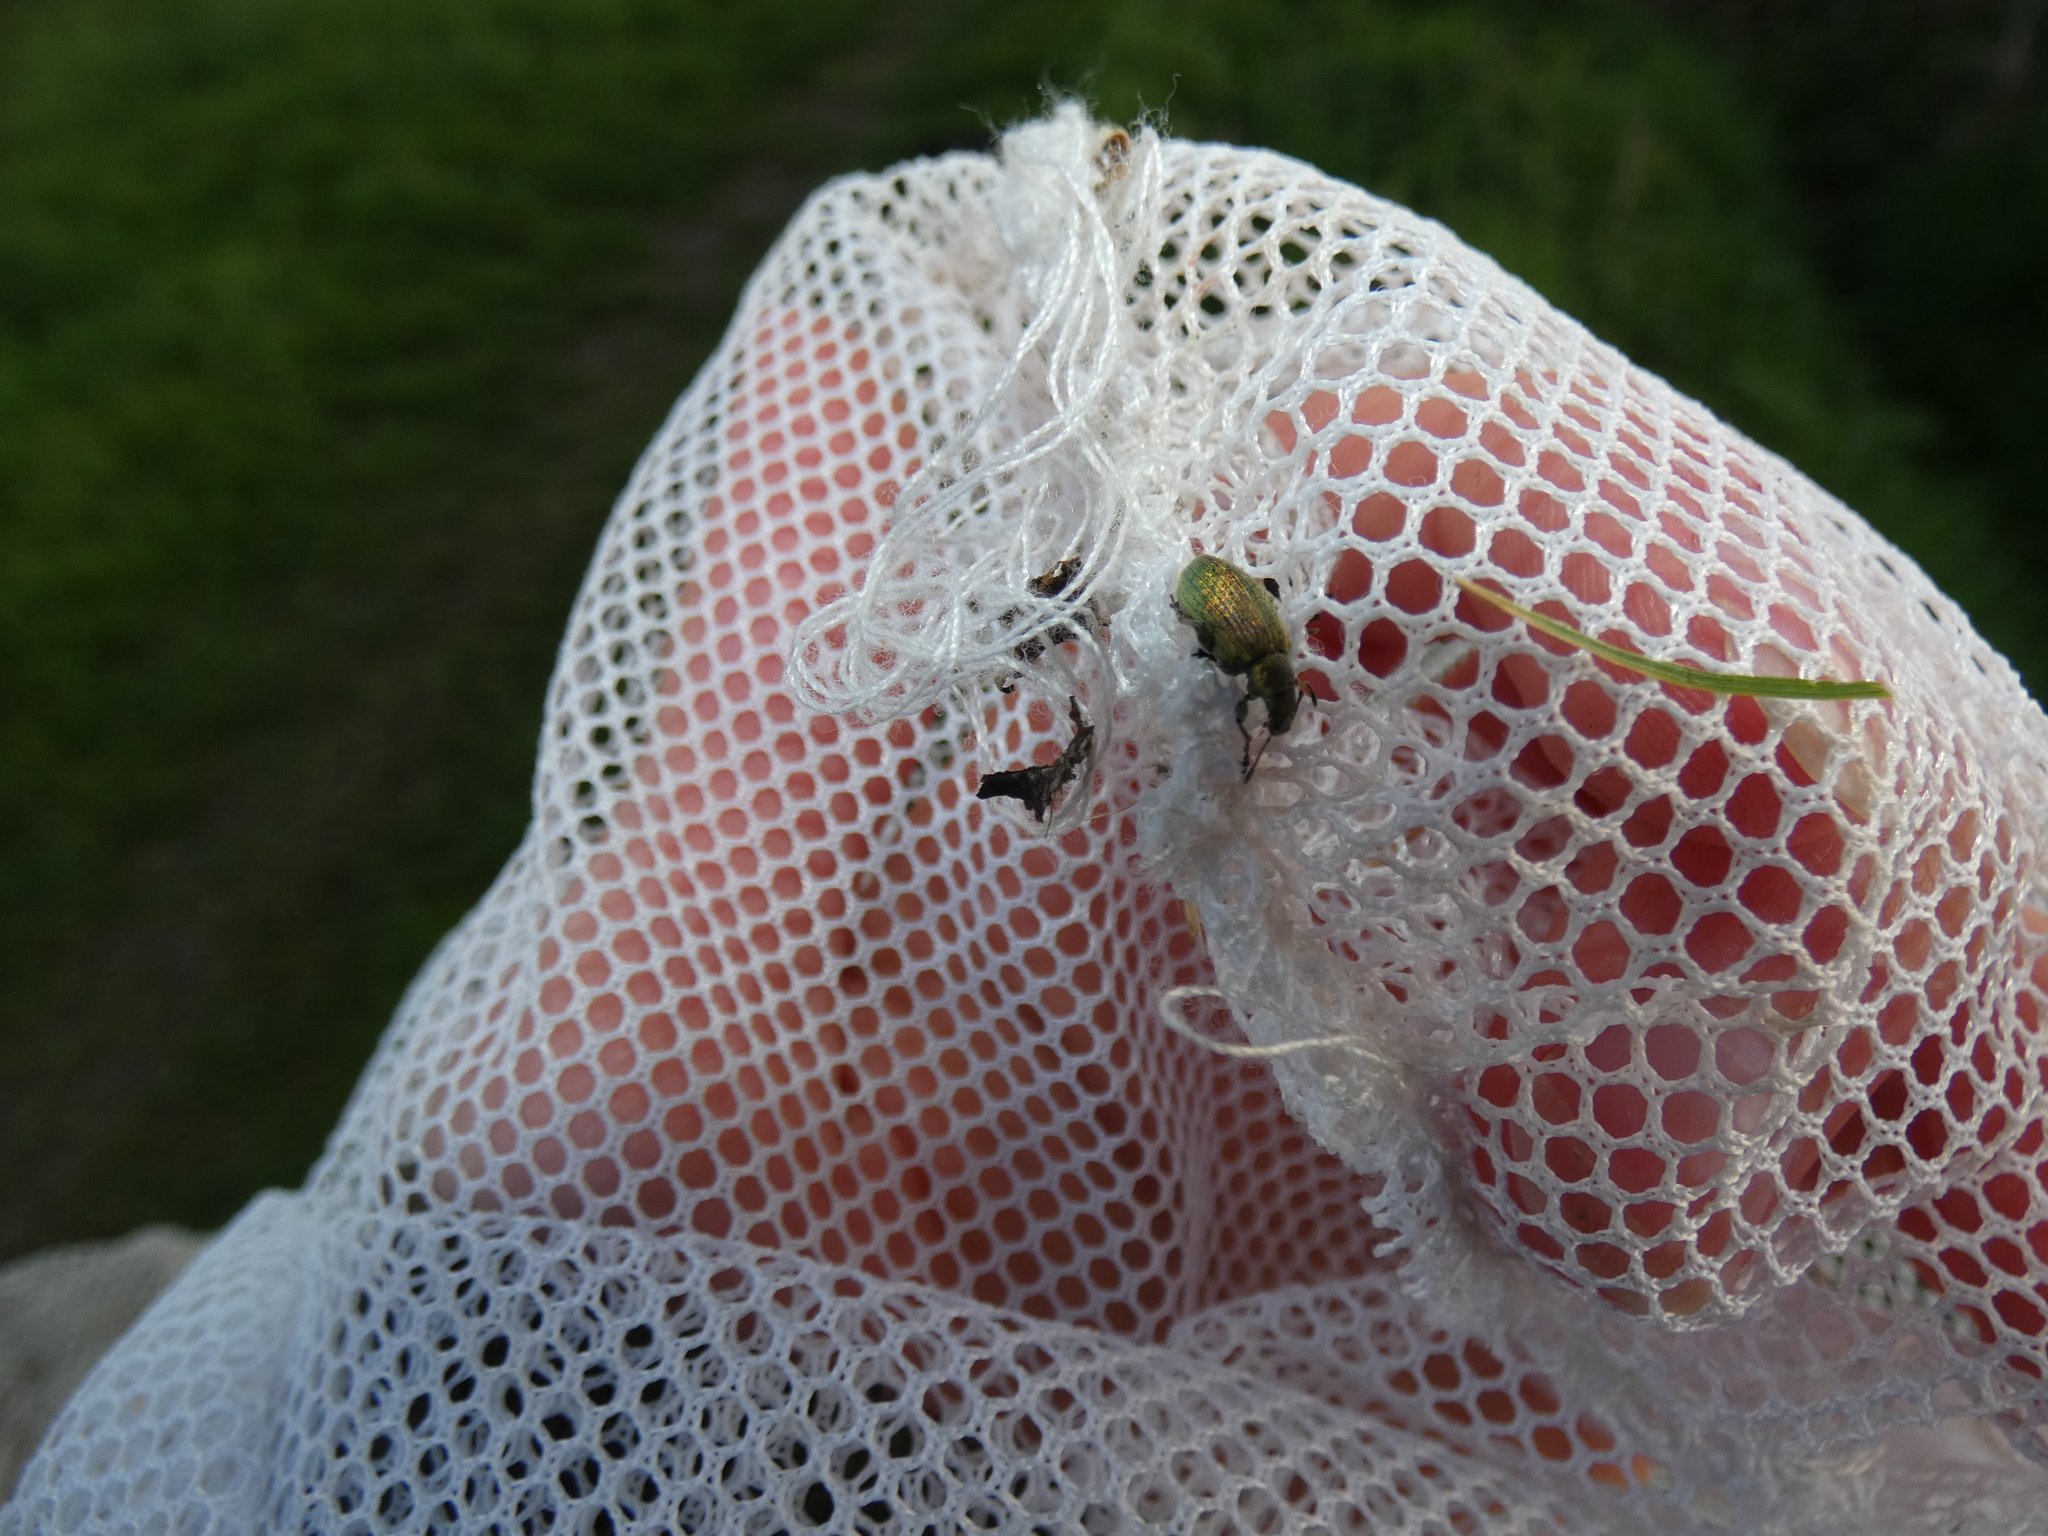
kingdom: Animalia
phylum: Arthropoda
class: Insecta
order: Coleoptera
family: Curculionidae
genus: Phyllobius
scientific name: Phyllobius pomaceus
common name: Green nettle weevil
